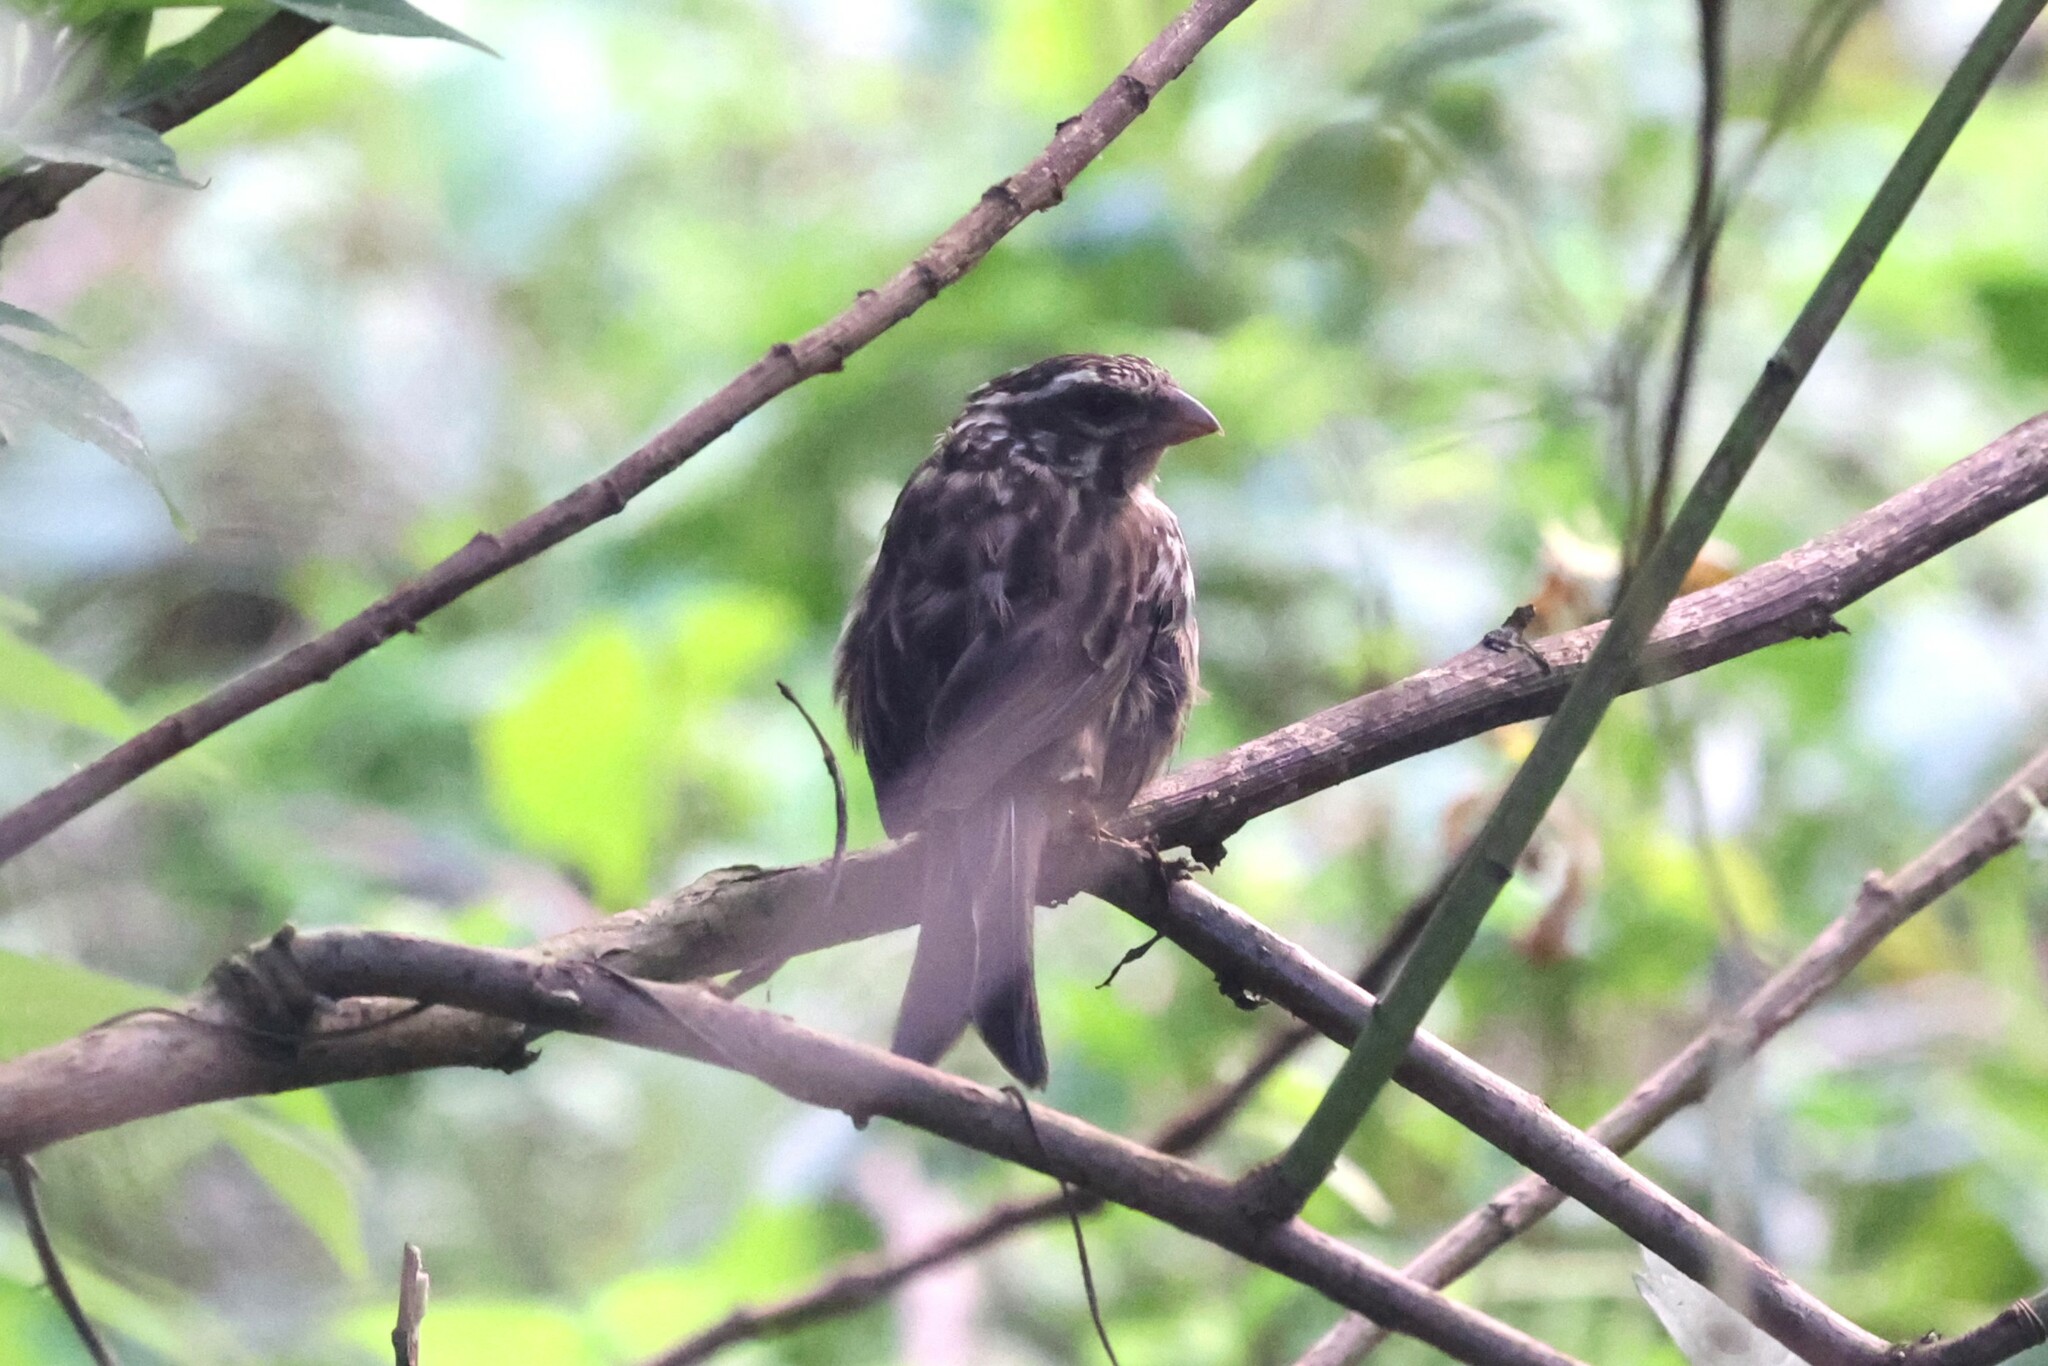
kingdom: Animalia
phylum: Chordata
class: Aves
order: Passeriformes
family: Fringillidae
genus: Crithagra
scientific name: Crithagra striolata
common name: Streaky seedeater
